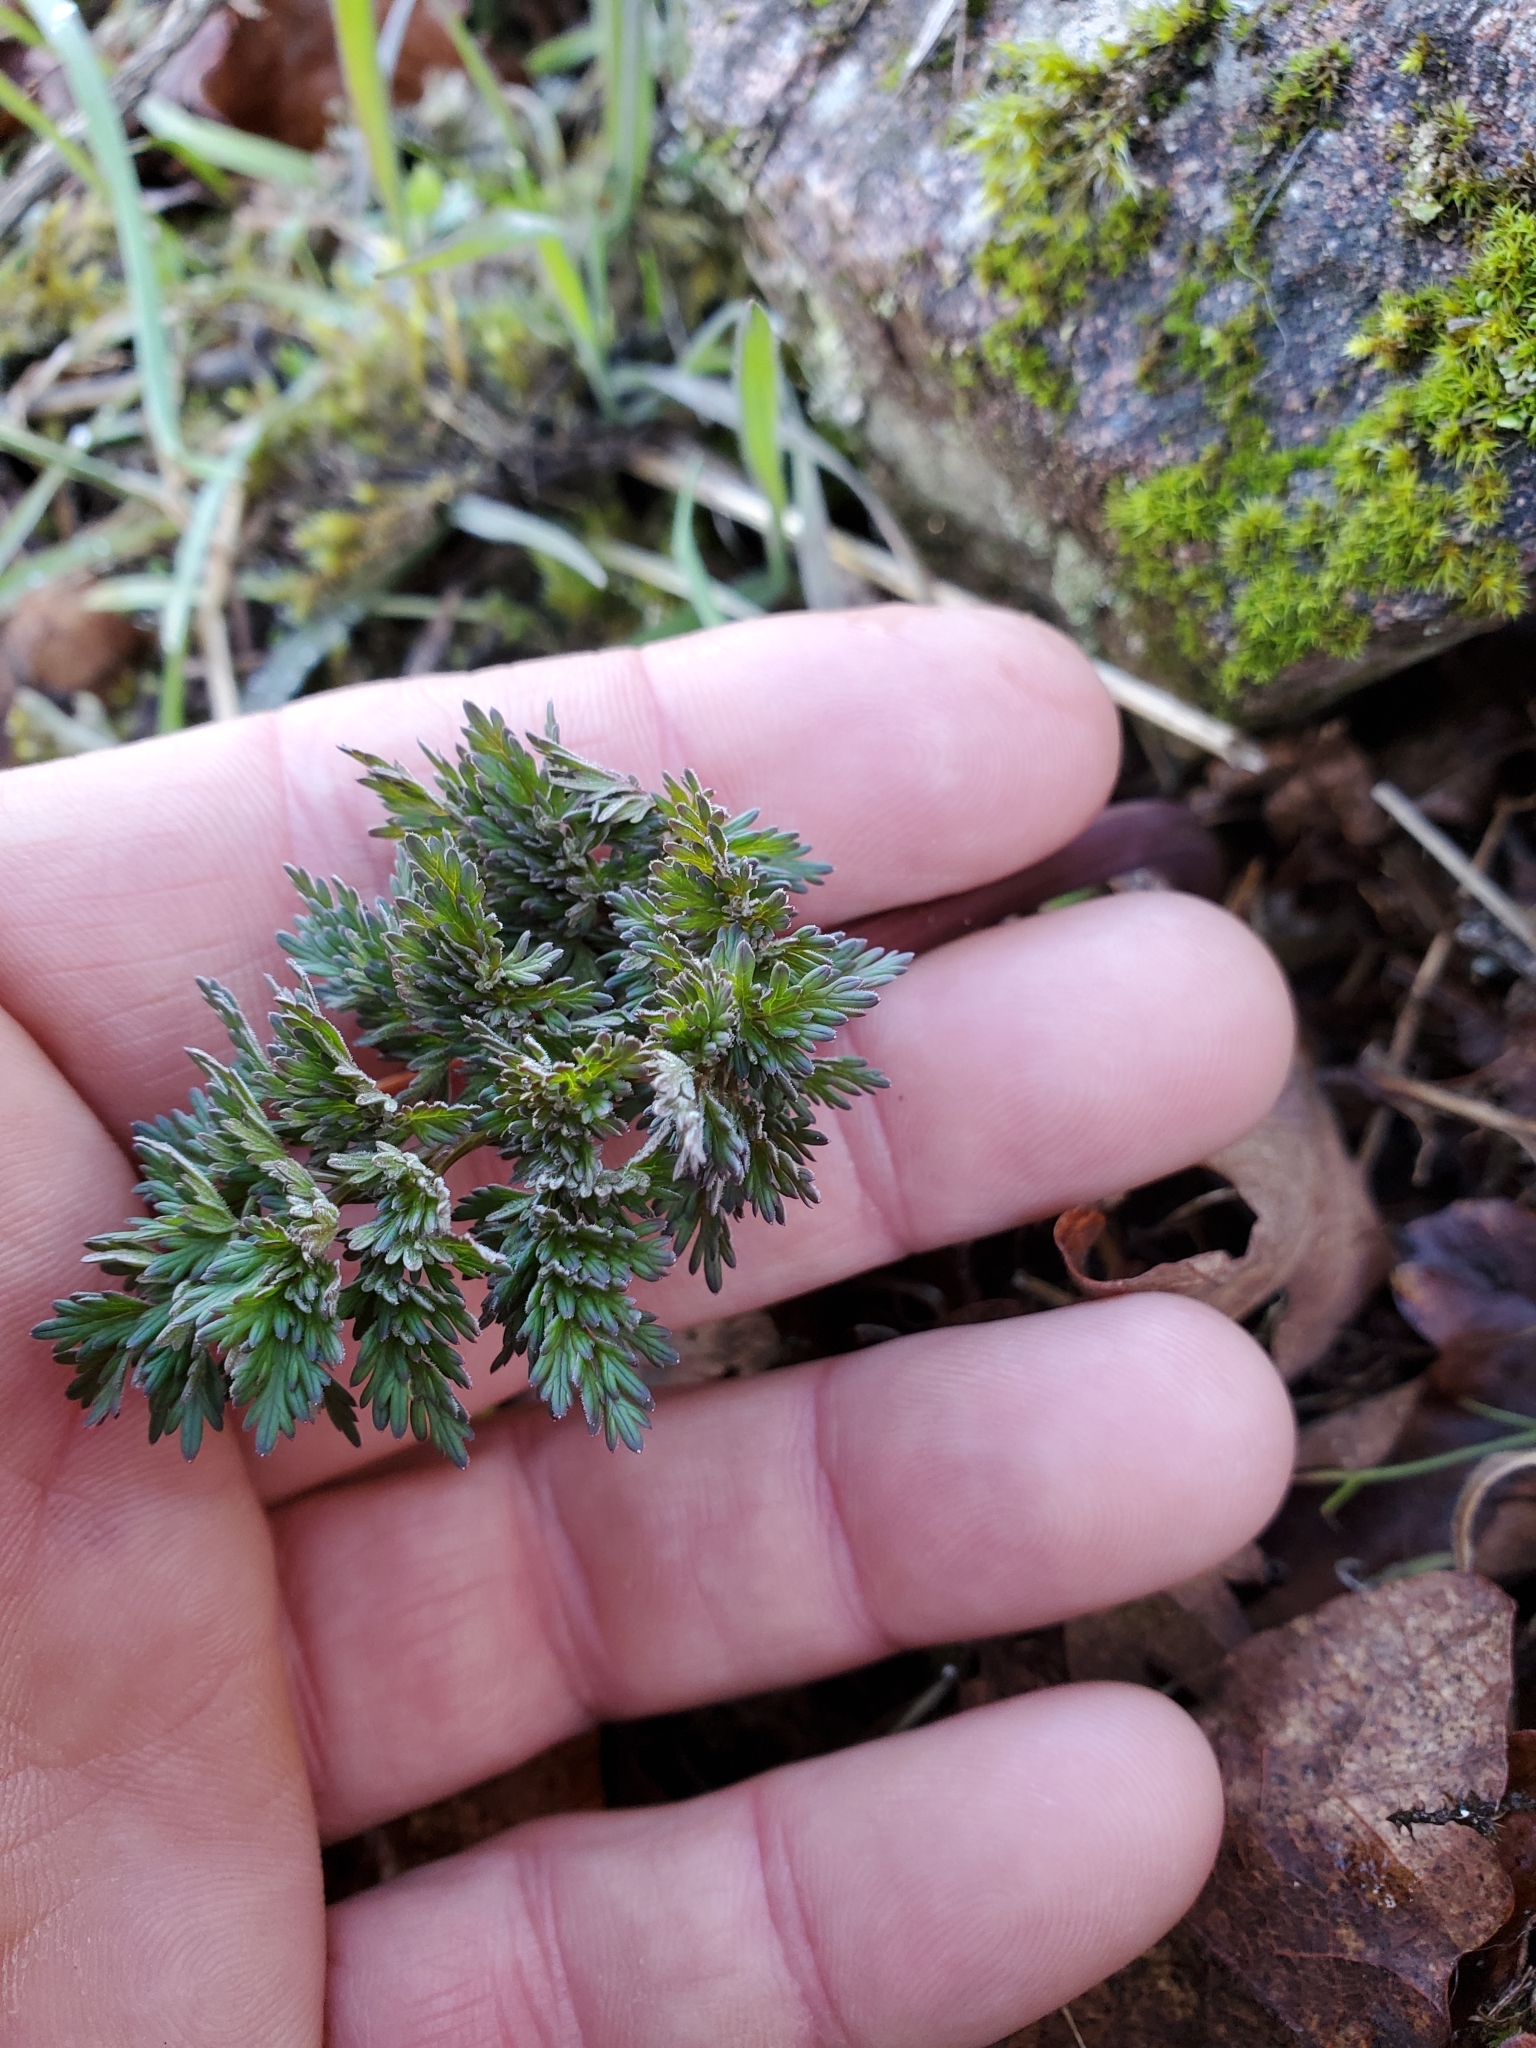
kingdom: Plantae
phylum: Tracheophyta
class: Magnoliopsida
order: Apiales
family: Apiaceae
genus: Lomatium
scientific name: Lomatium dissectum
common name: Lomatium
